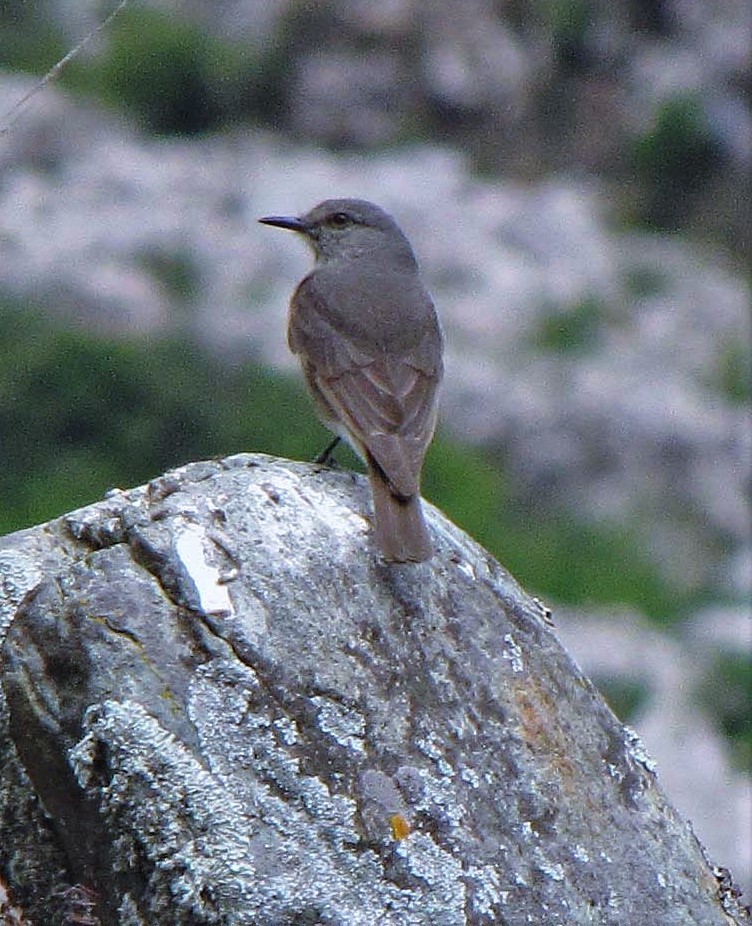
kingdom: Animalia
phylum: Chordata
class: Aves
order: Passeriformes
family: Tyrannidae
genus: Polioxolmis
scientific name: Polioxolmis rufipennis
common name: Rufous-webbed bush-tyrant
